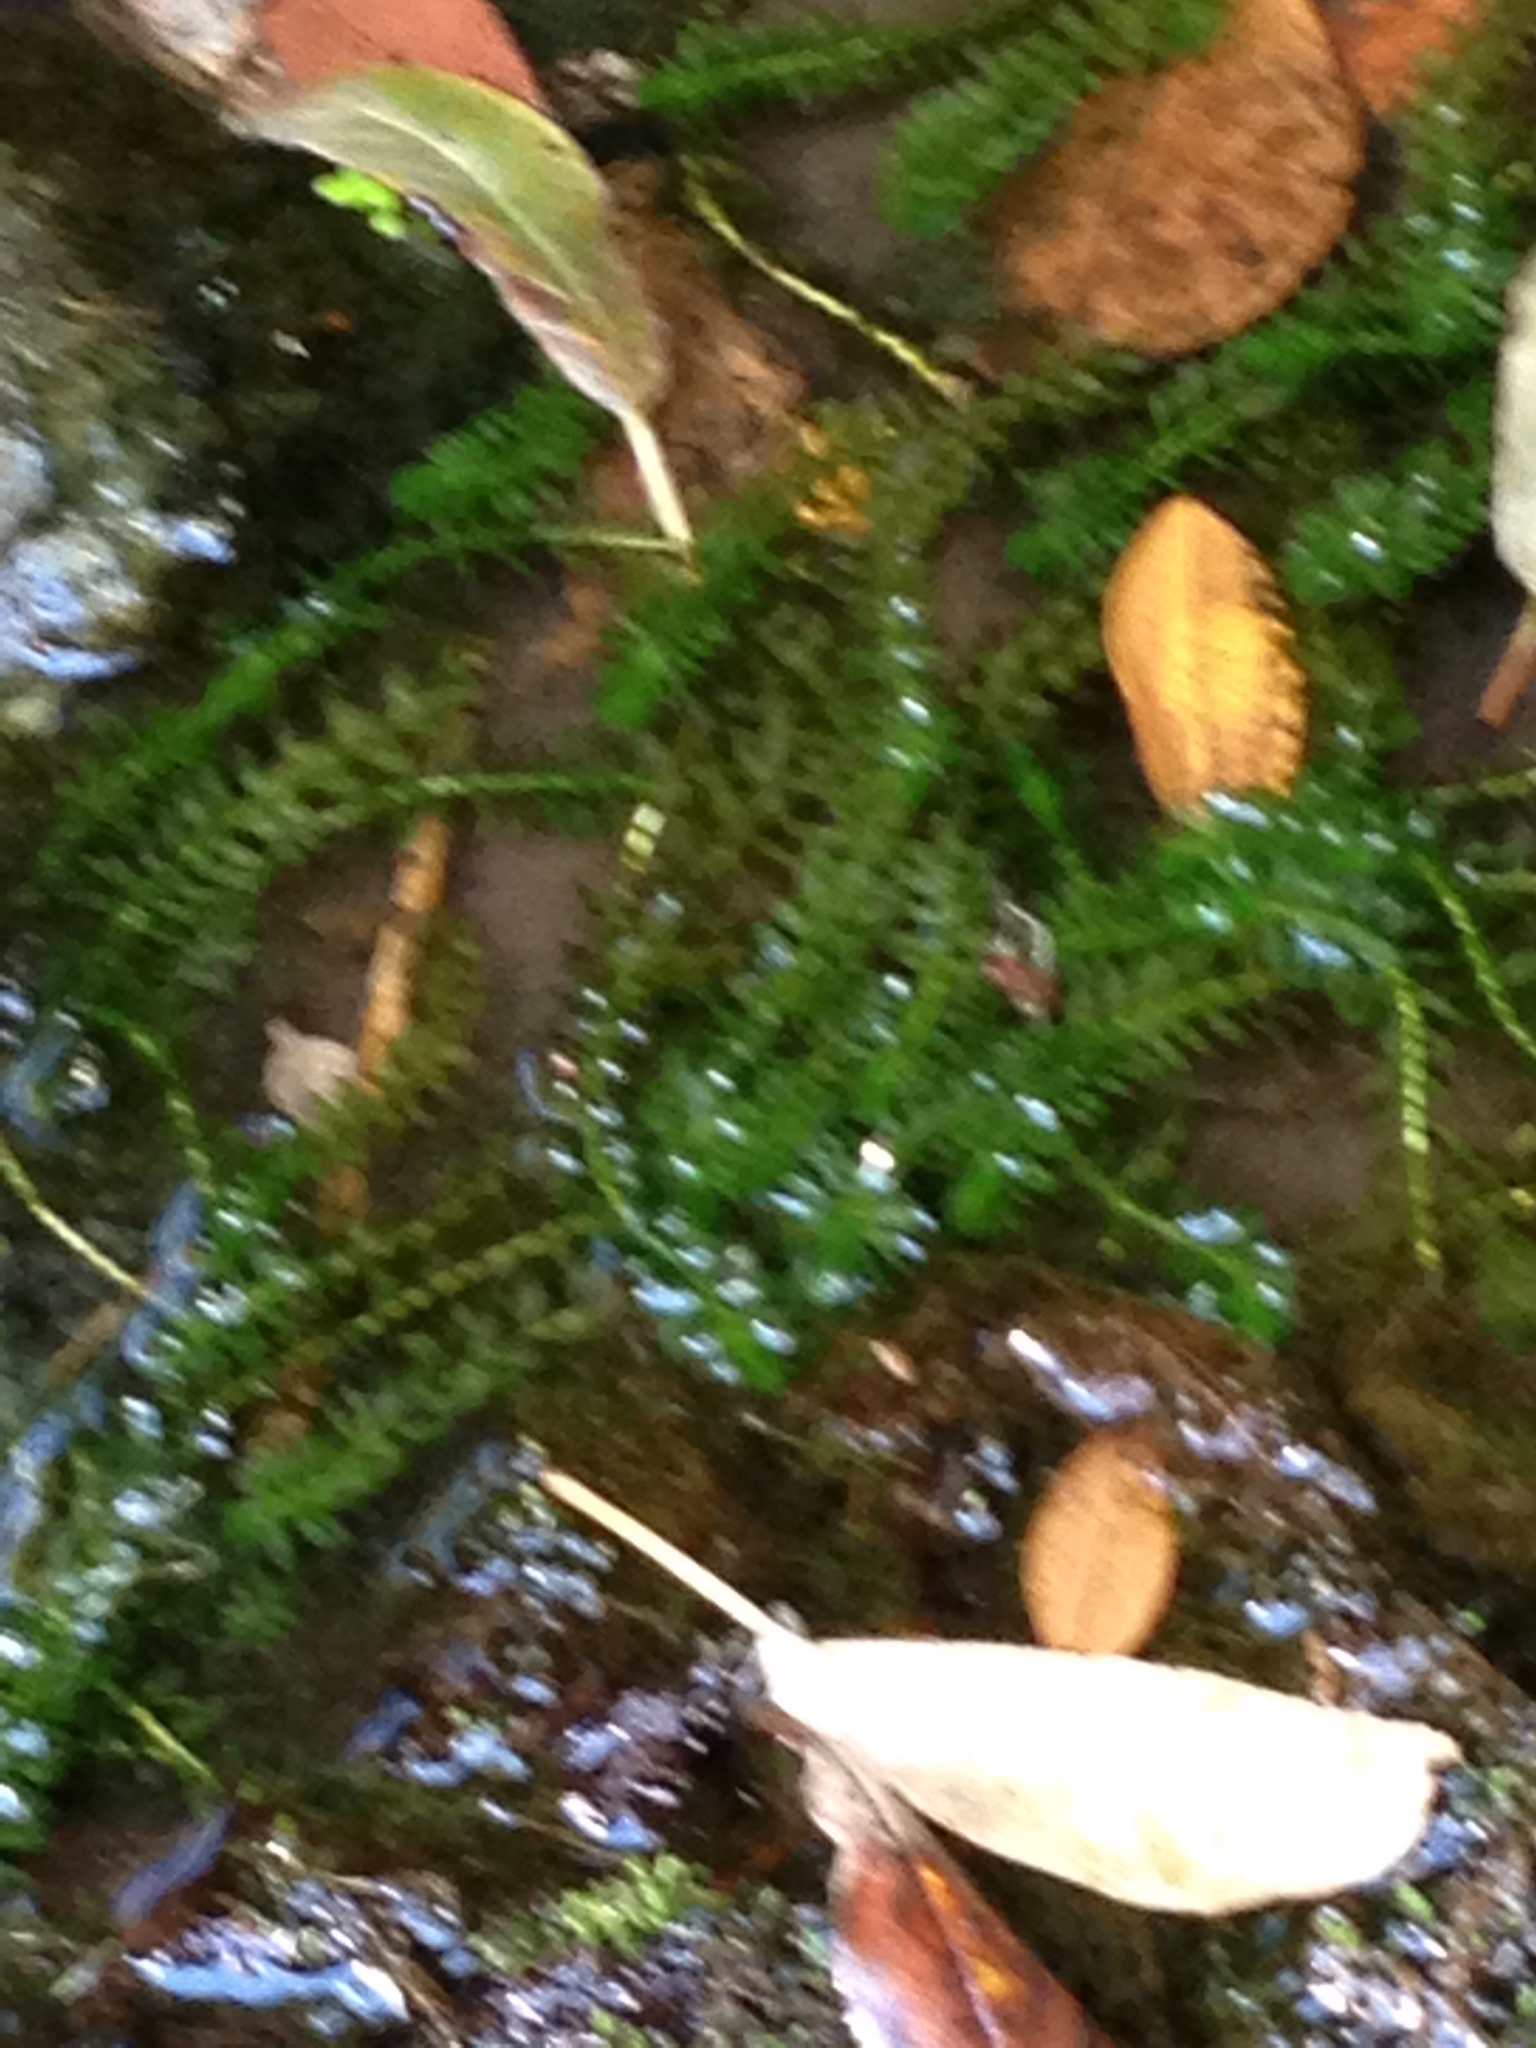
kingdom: Plantae
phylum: Tracheophyta
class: Liliopsida
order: Alismatales
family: Hydrocharitaceae
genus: Elodea
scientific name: Elodea canadensis
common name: Canadian waterweed
